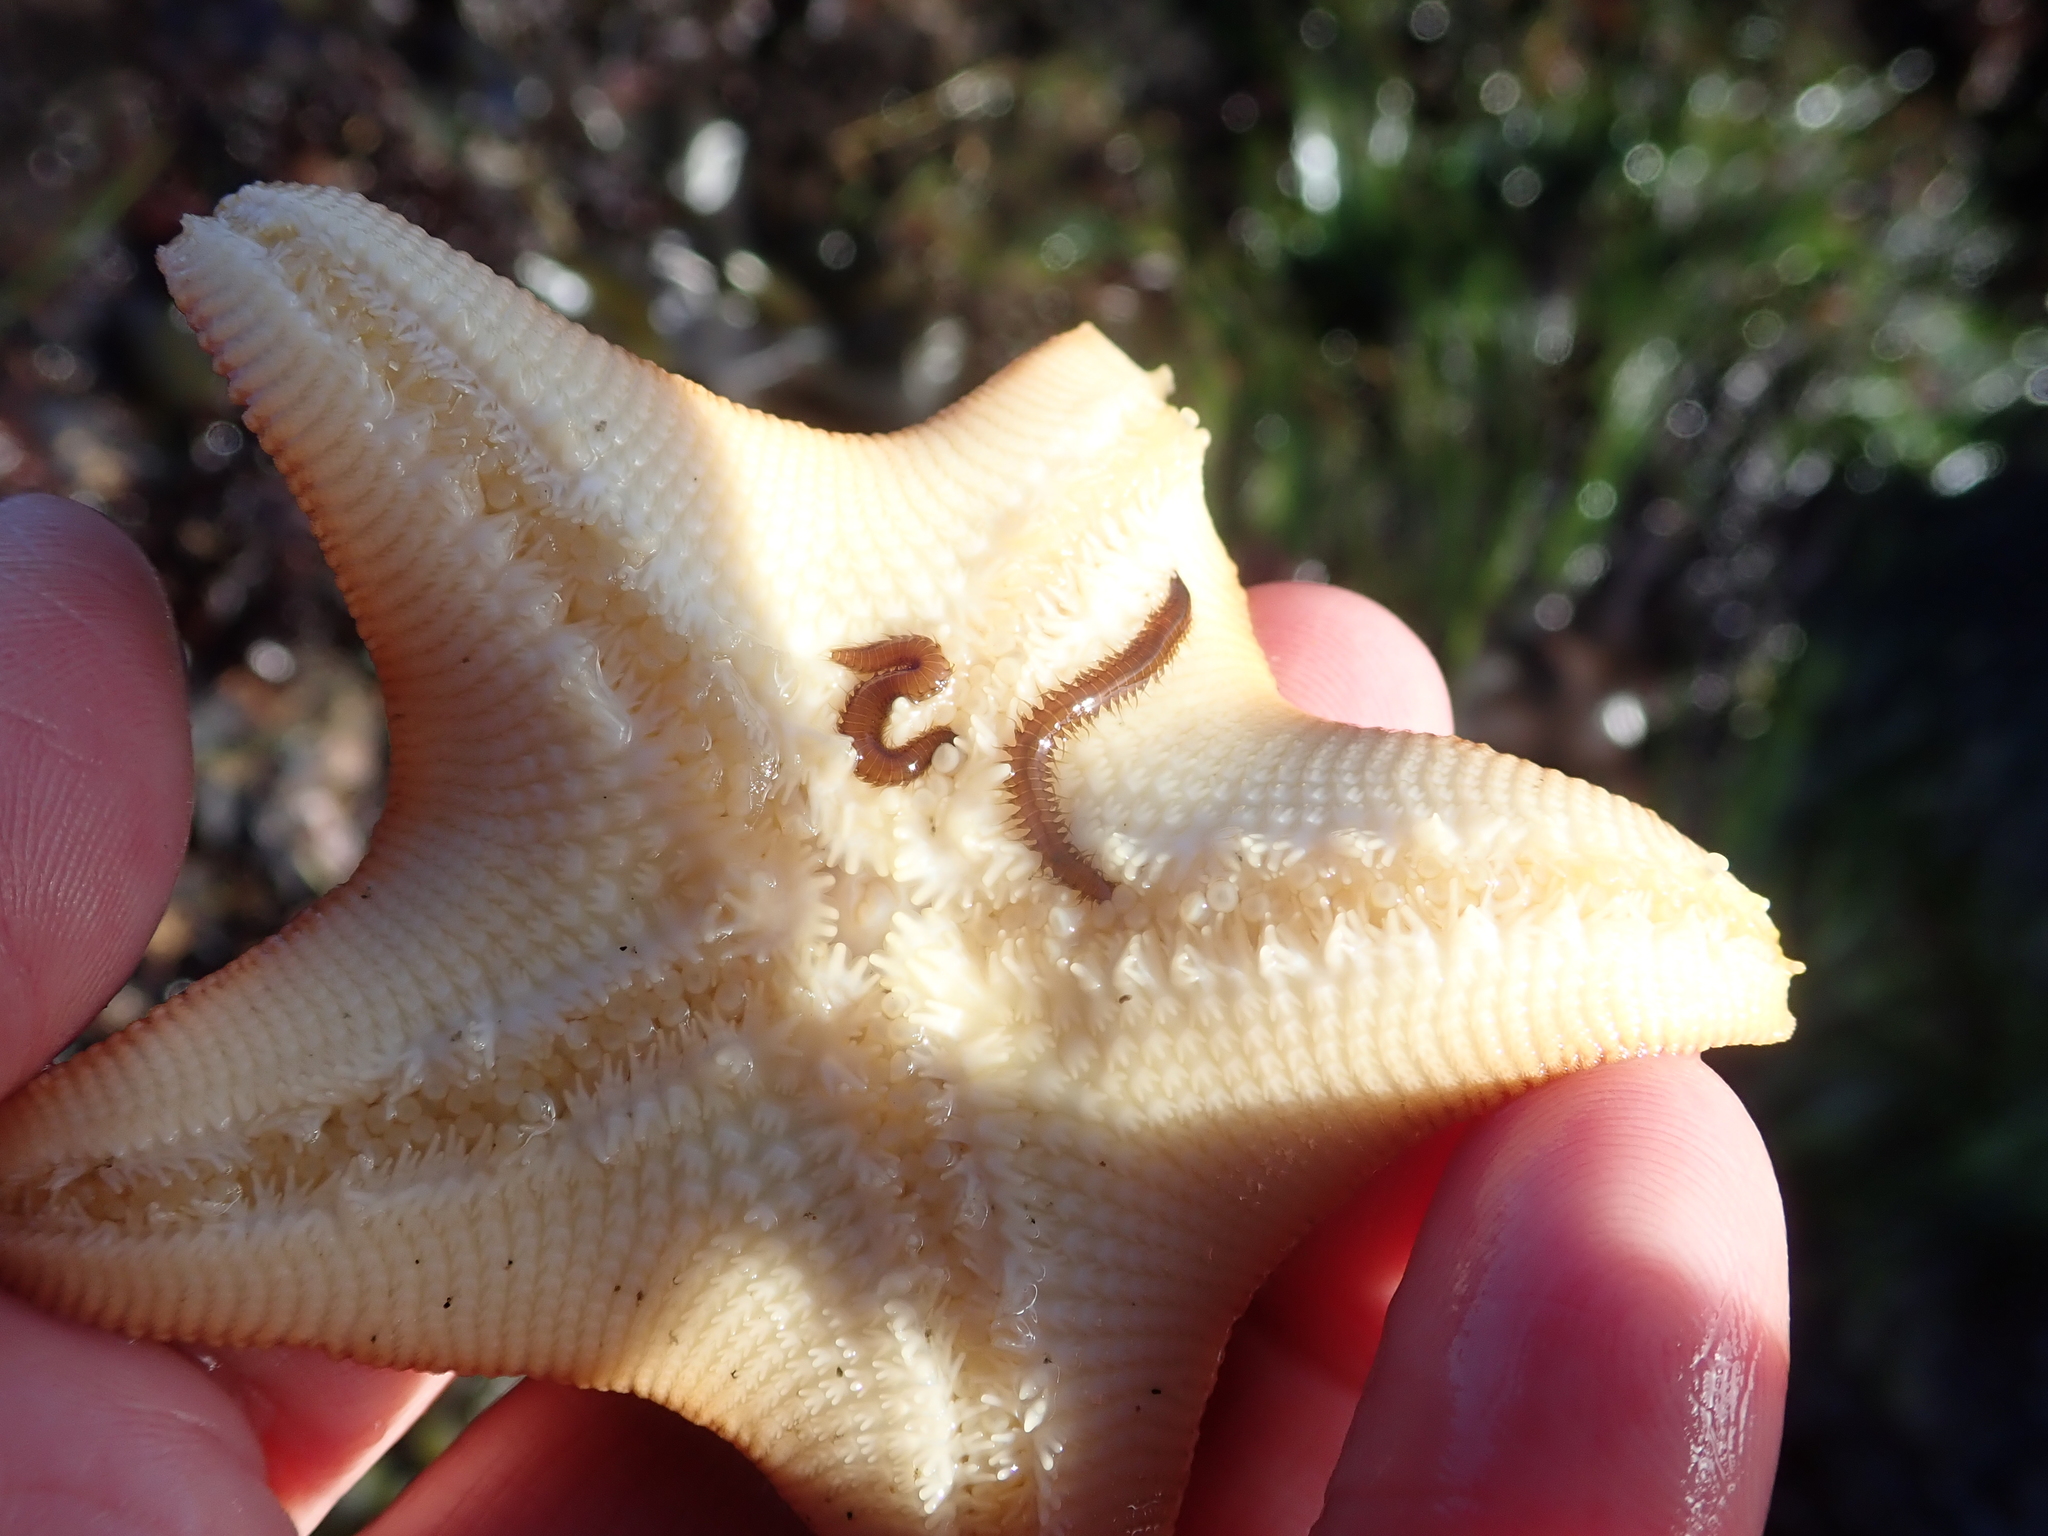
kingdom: Animalia
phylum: Annelida
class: Polychaeta
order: Phyllodocida
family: Hesionidae
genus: Oxydromus
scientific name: Oxydromus pugettensis
